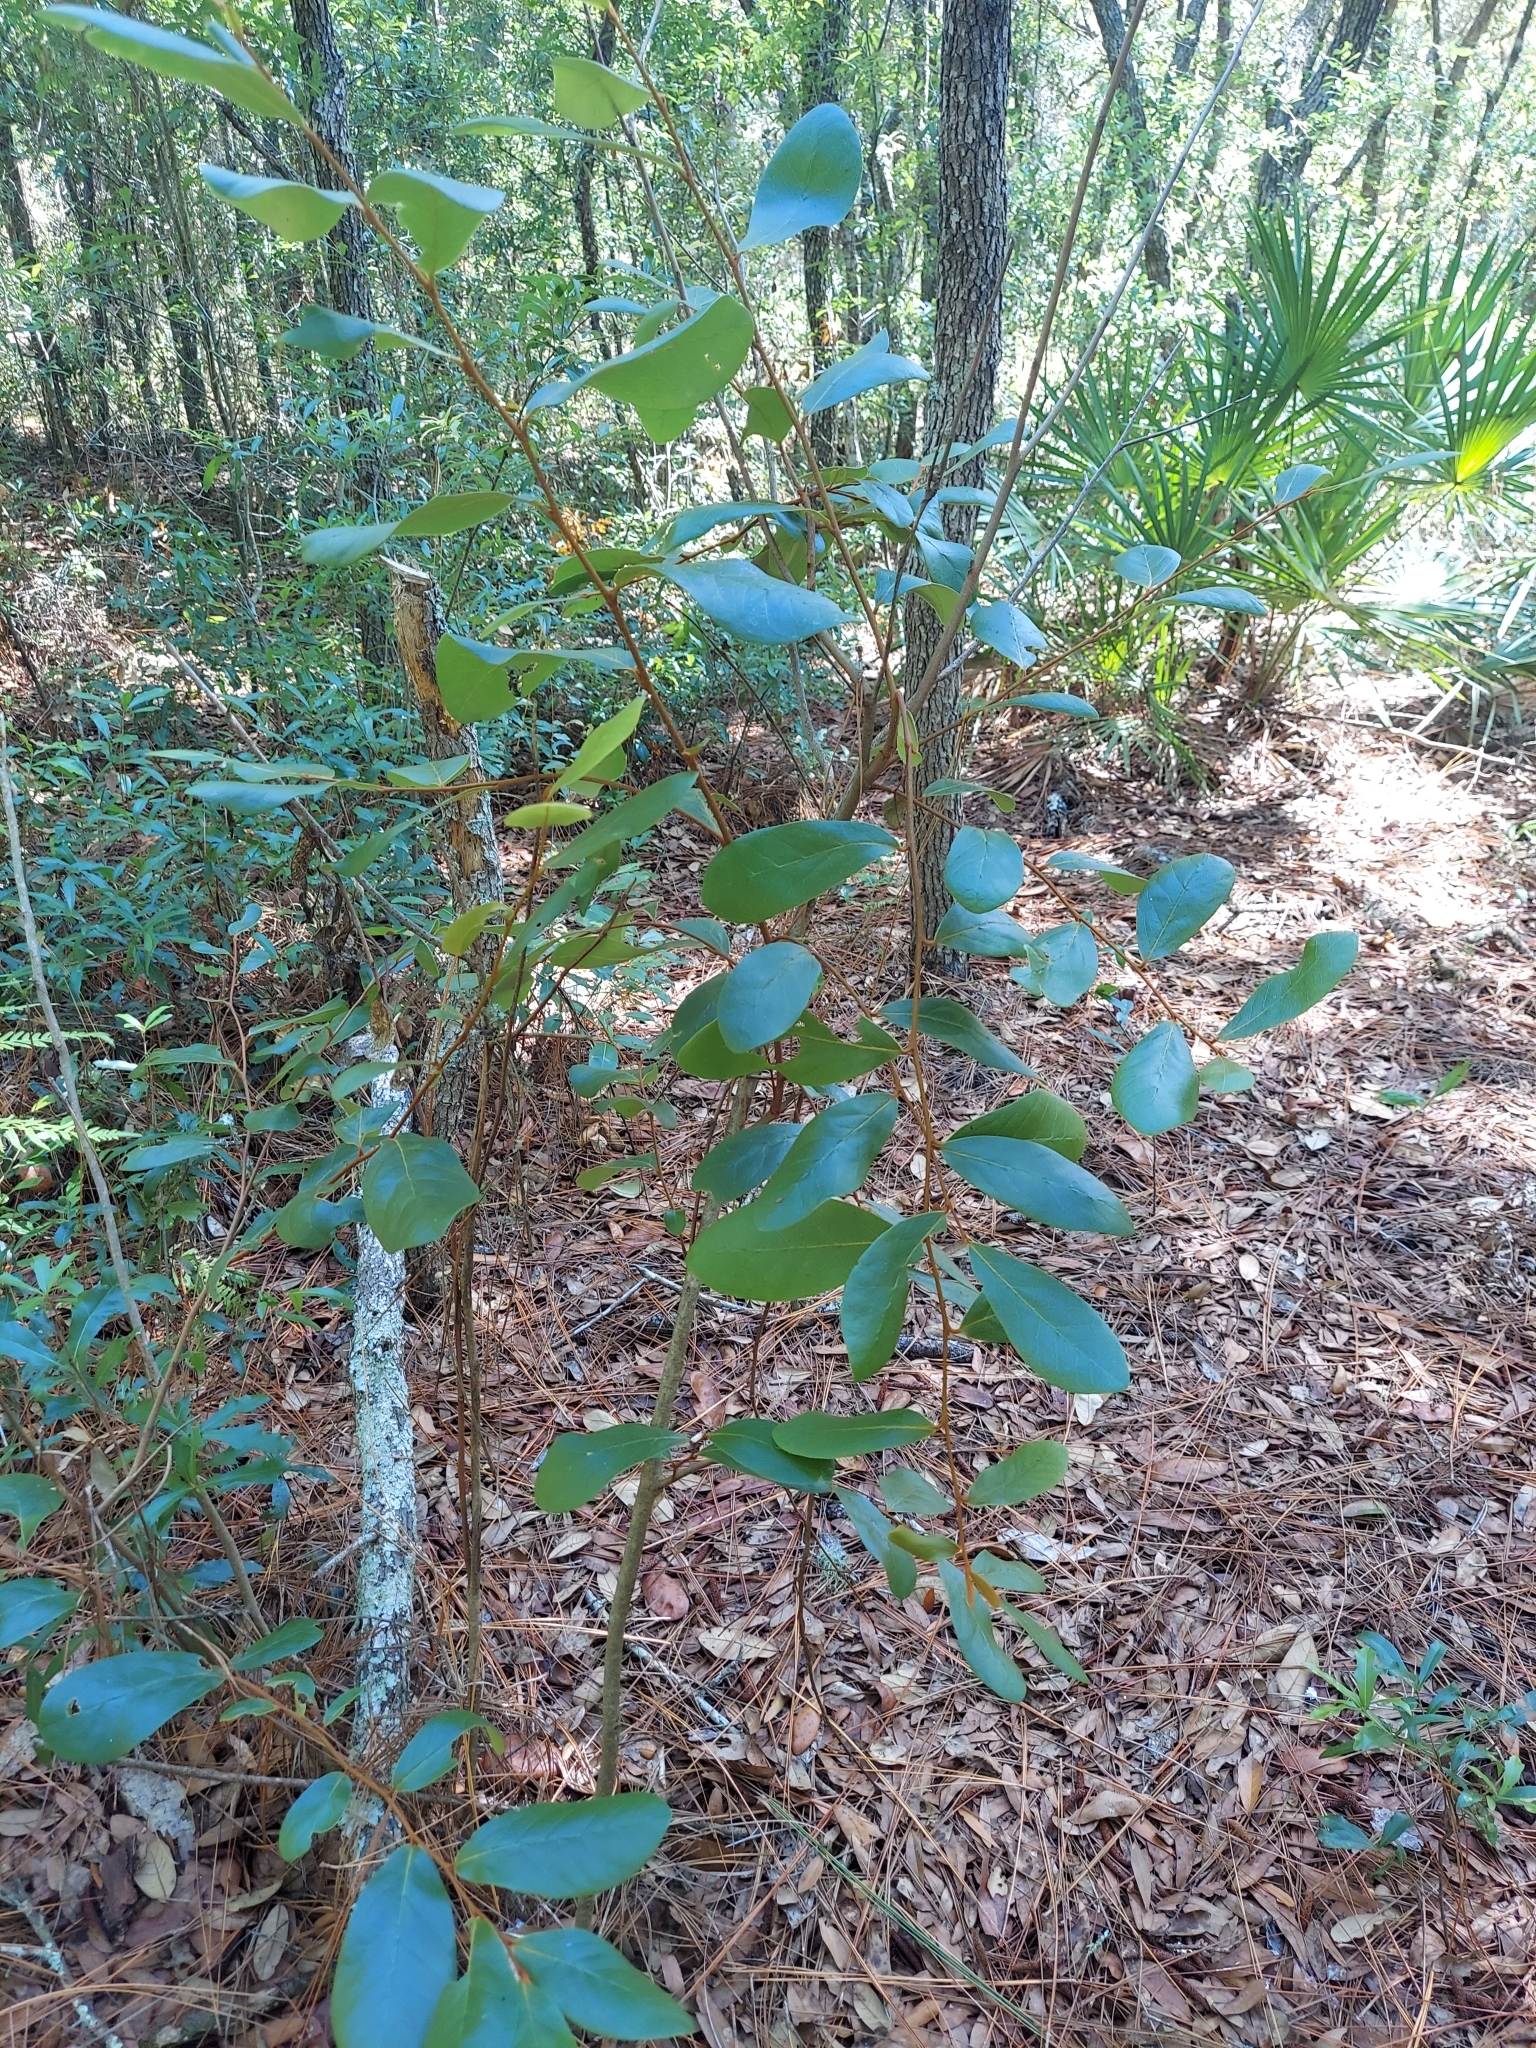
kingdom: Plantae
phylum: Tracheophyta
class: Magnoliopsida
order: Magnoliales
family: Annonaceae
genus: Asimina
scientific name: Asimina obovata
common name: Flag pawpaw
